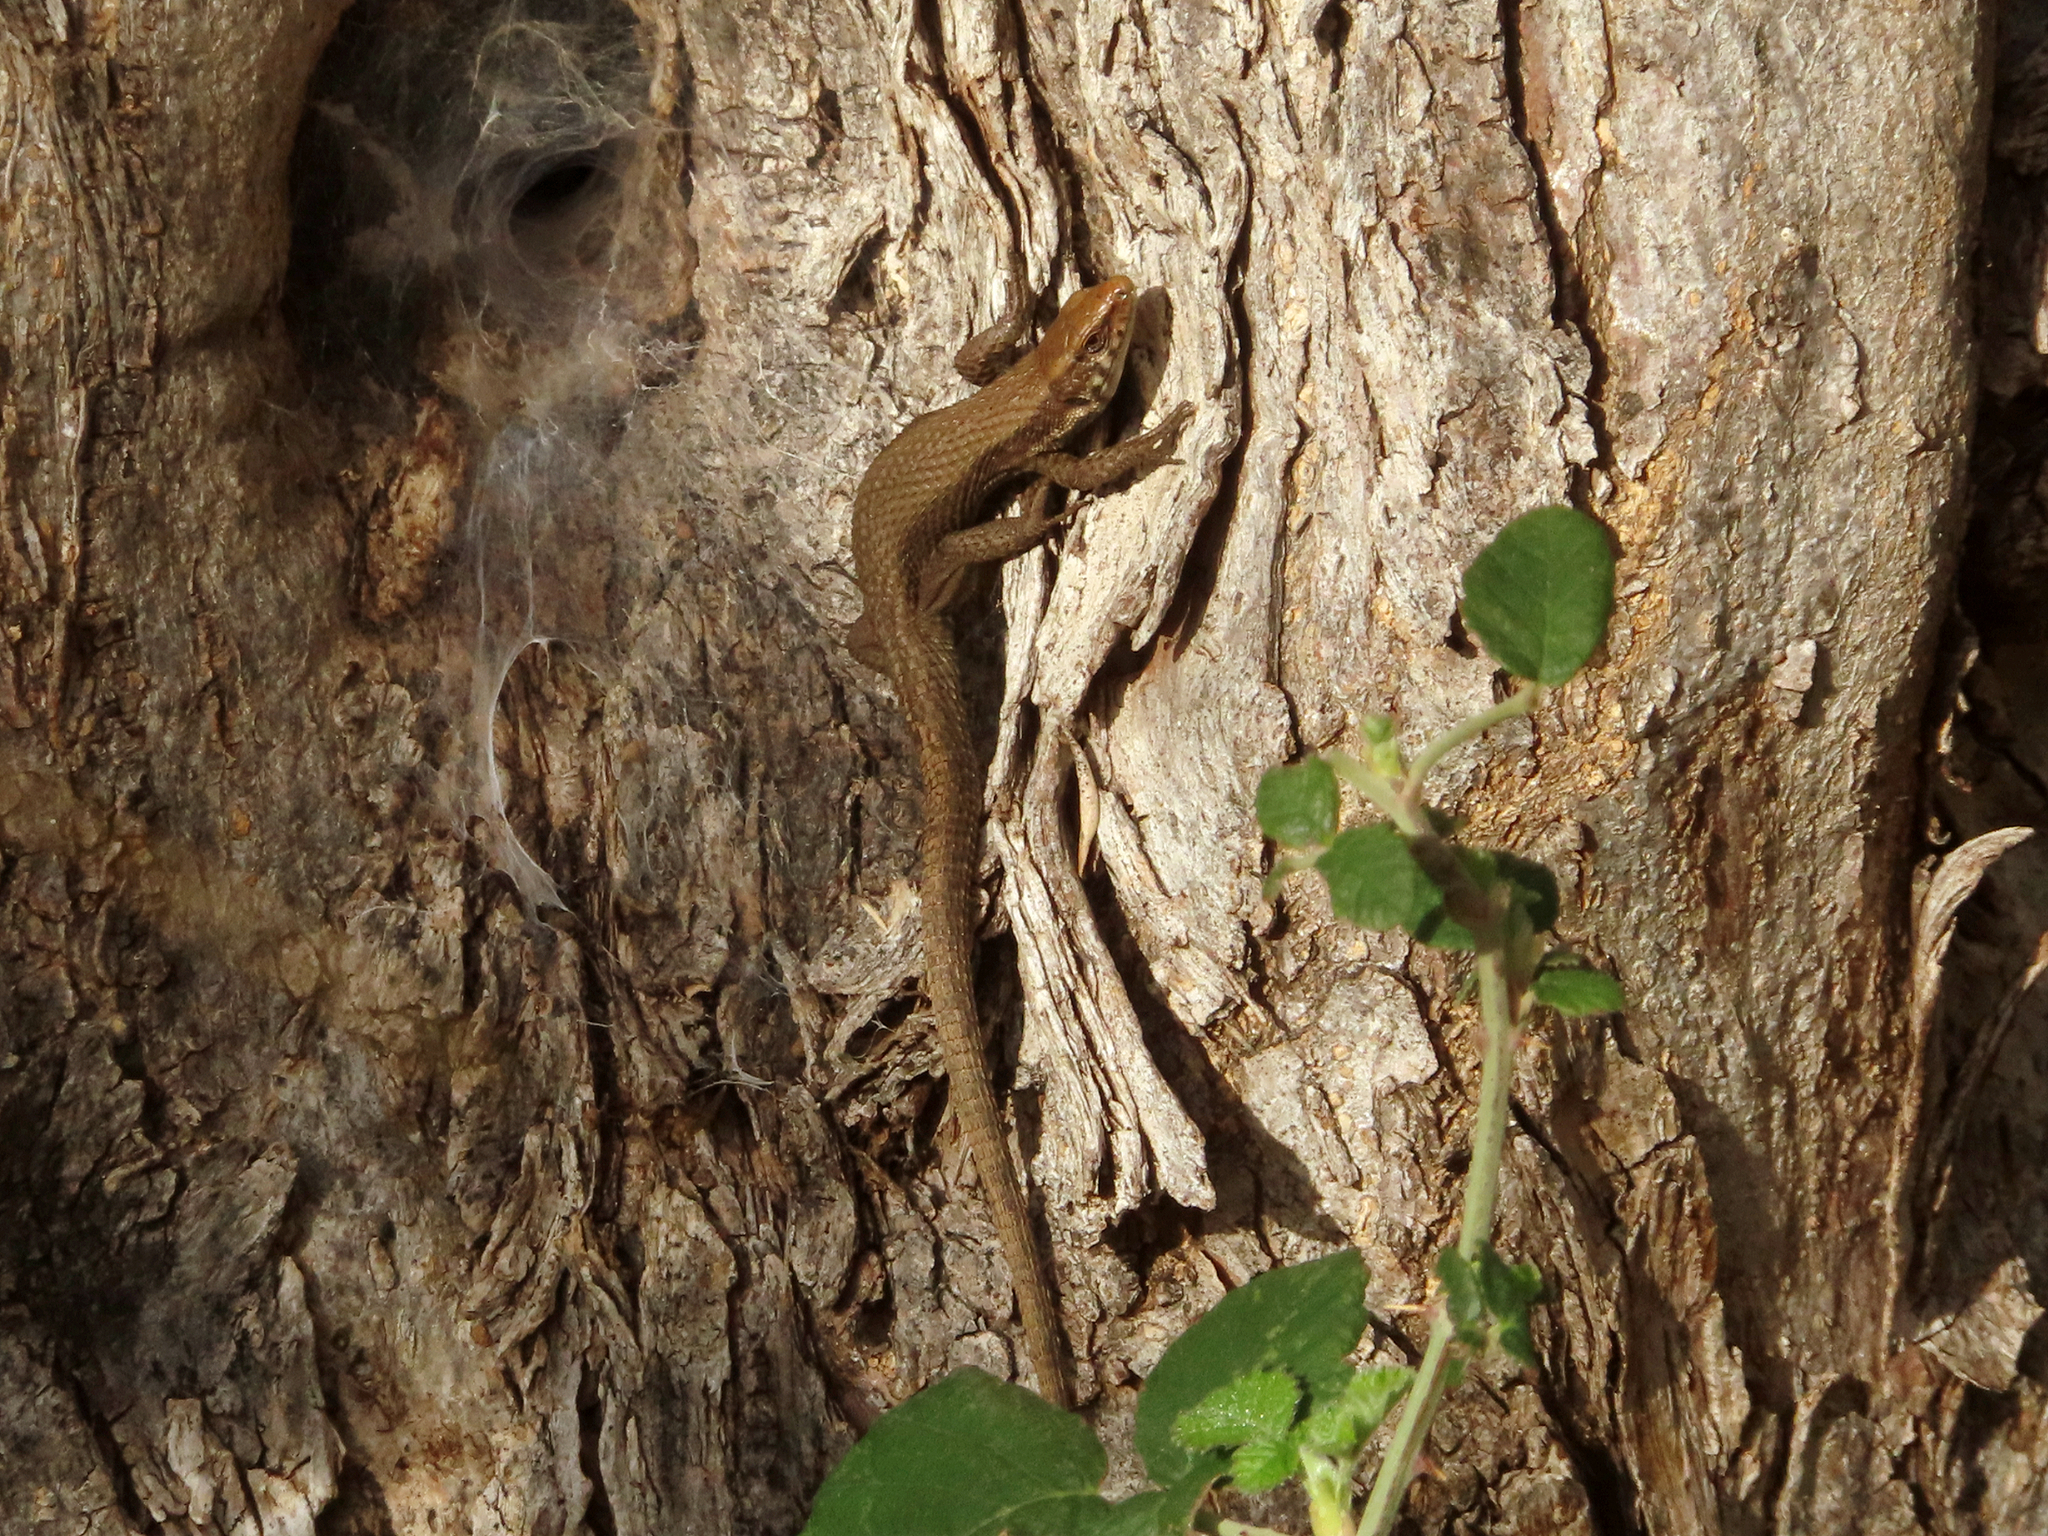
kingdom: Animalia
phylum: Chordata
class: Squamata
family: Lacertidae
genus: Algyroides
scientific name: Algyroides moreoticus
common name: Greek algyroides
